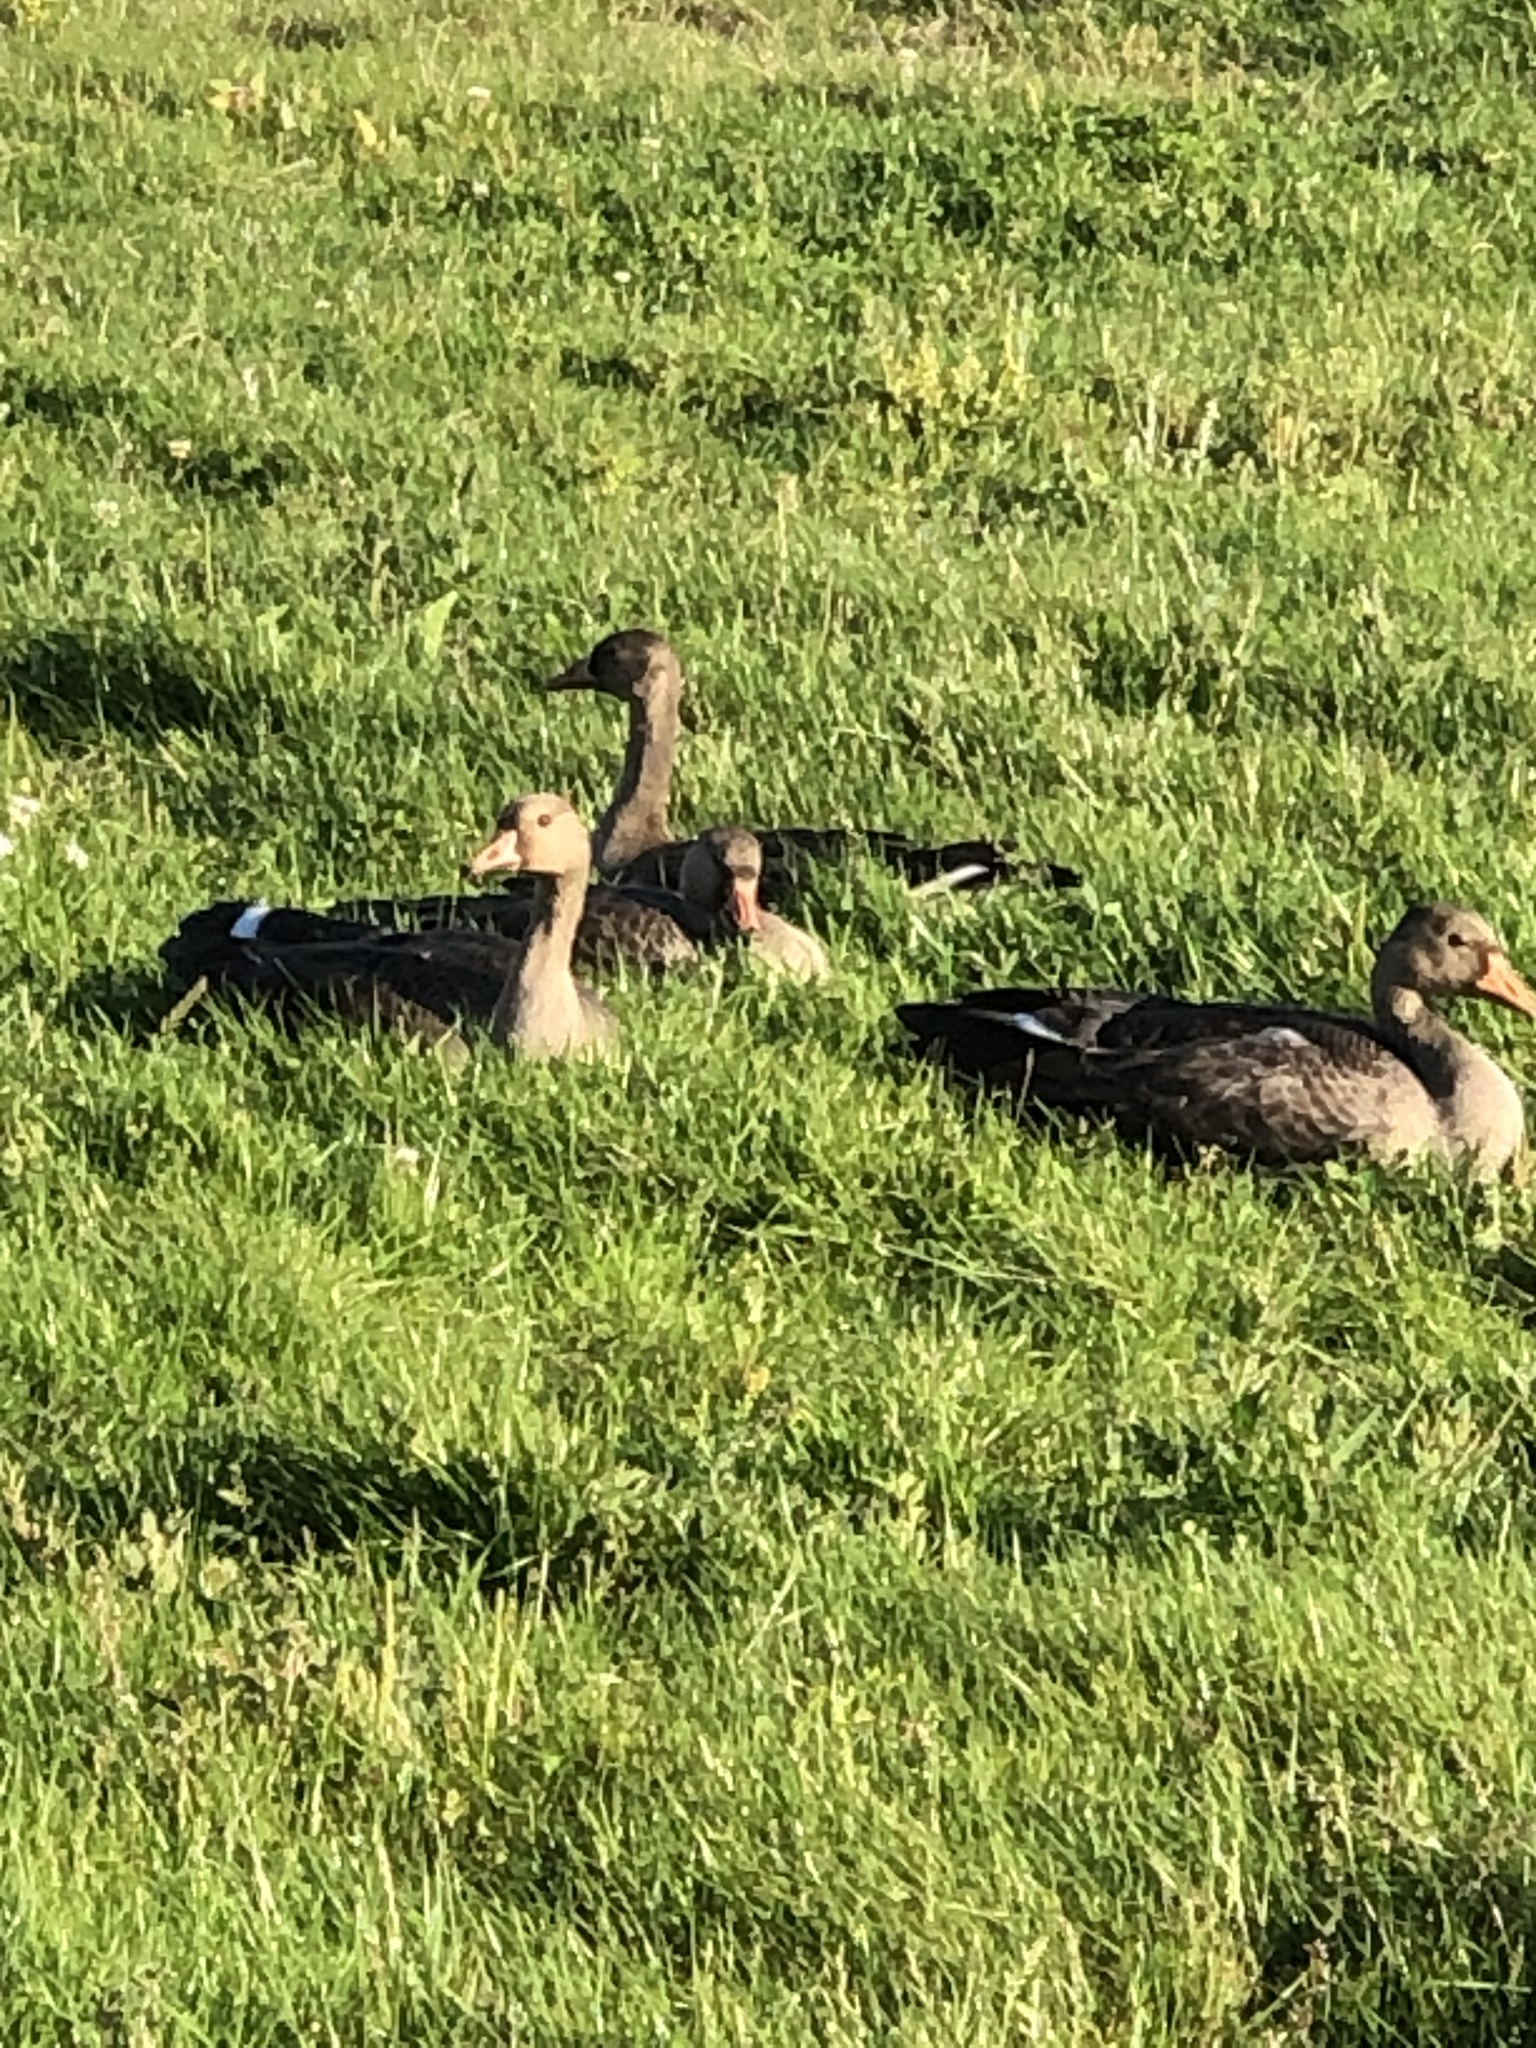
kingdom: Animalia
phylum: Chordata
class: Aves
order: Anseriformes
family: Anatidae
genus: Anser
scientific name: Anser albifrons
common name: Greater white-fronted goose
